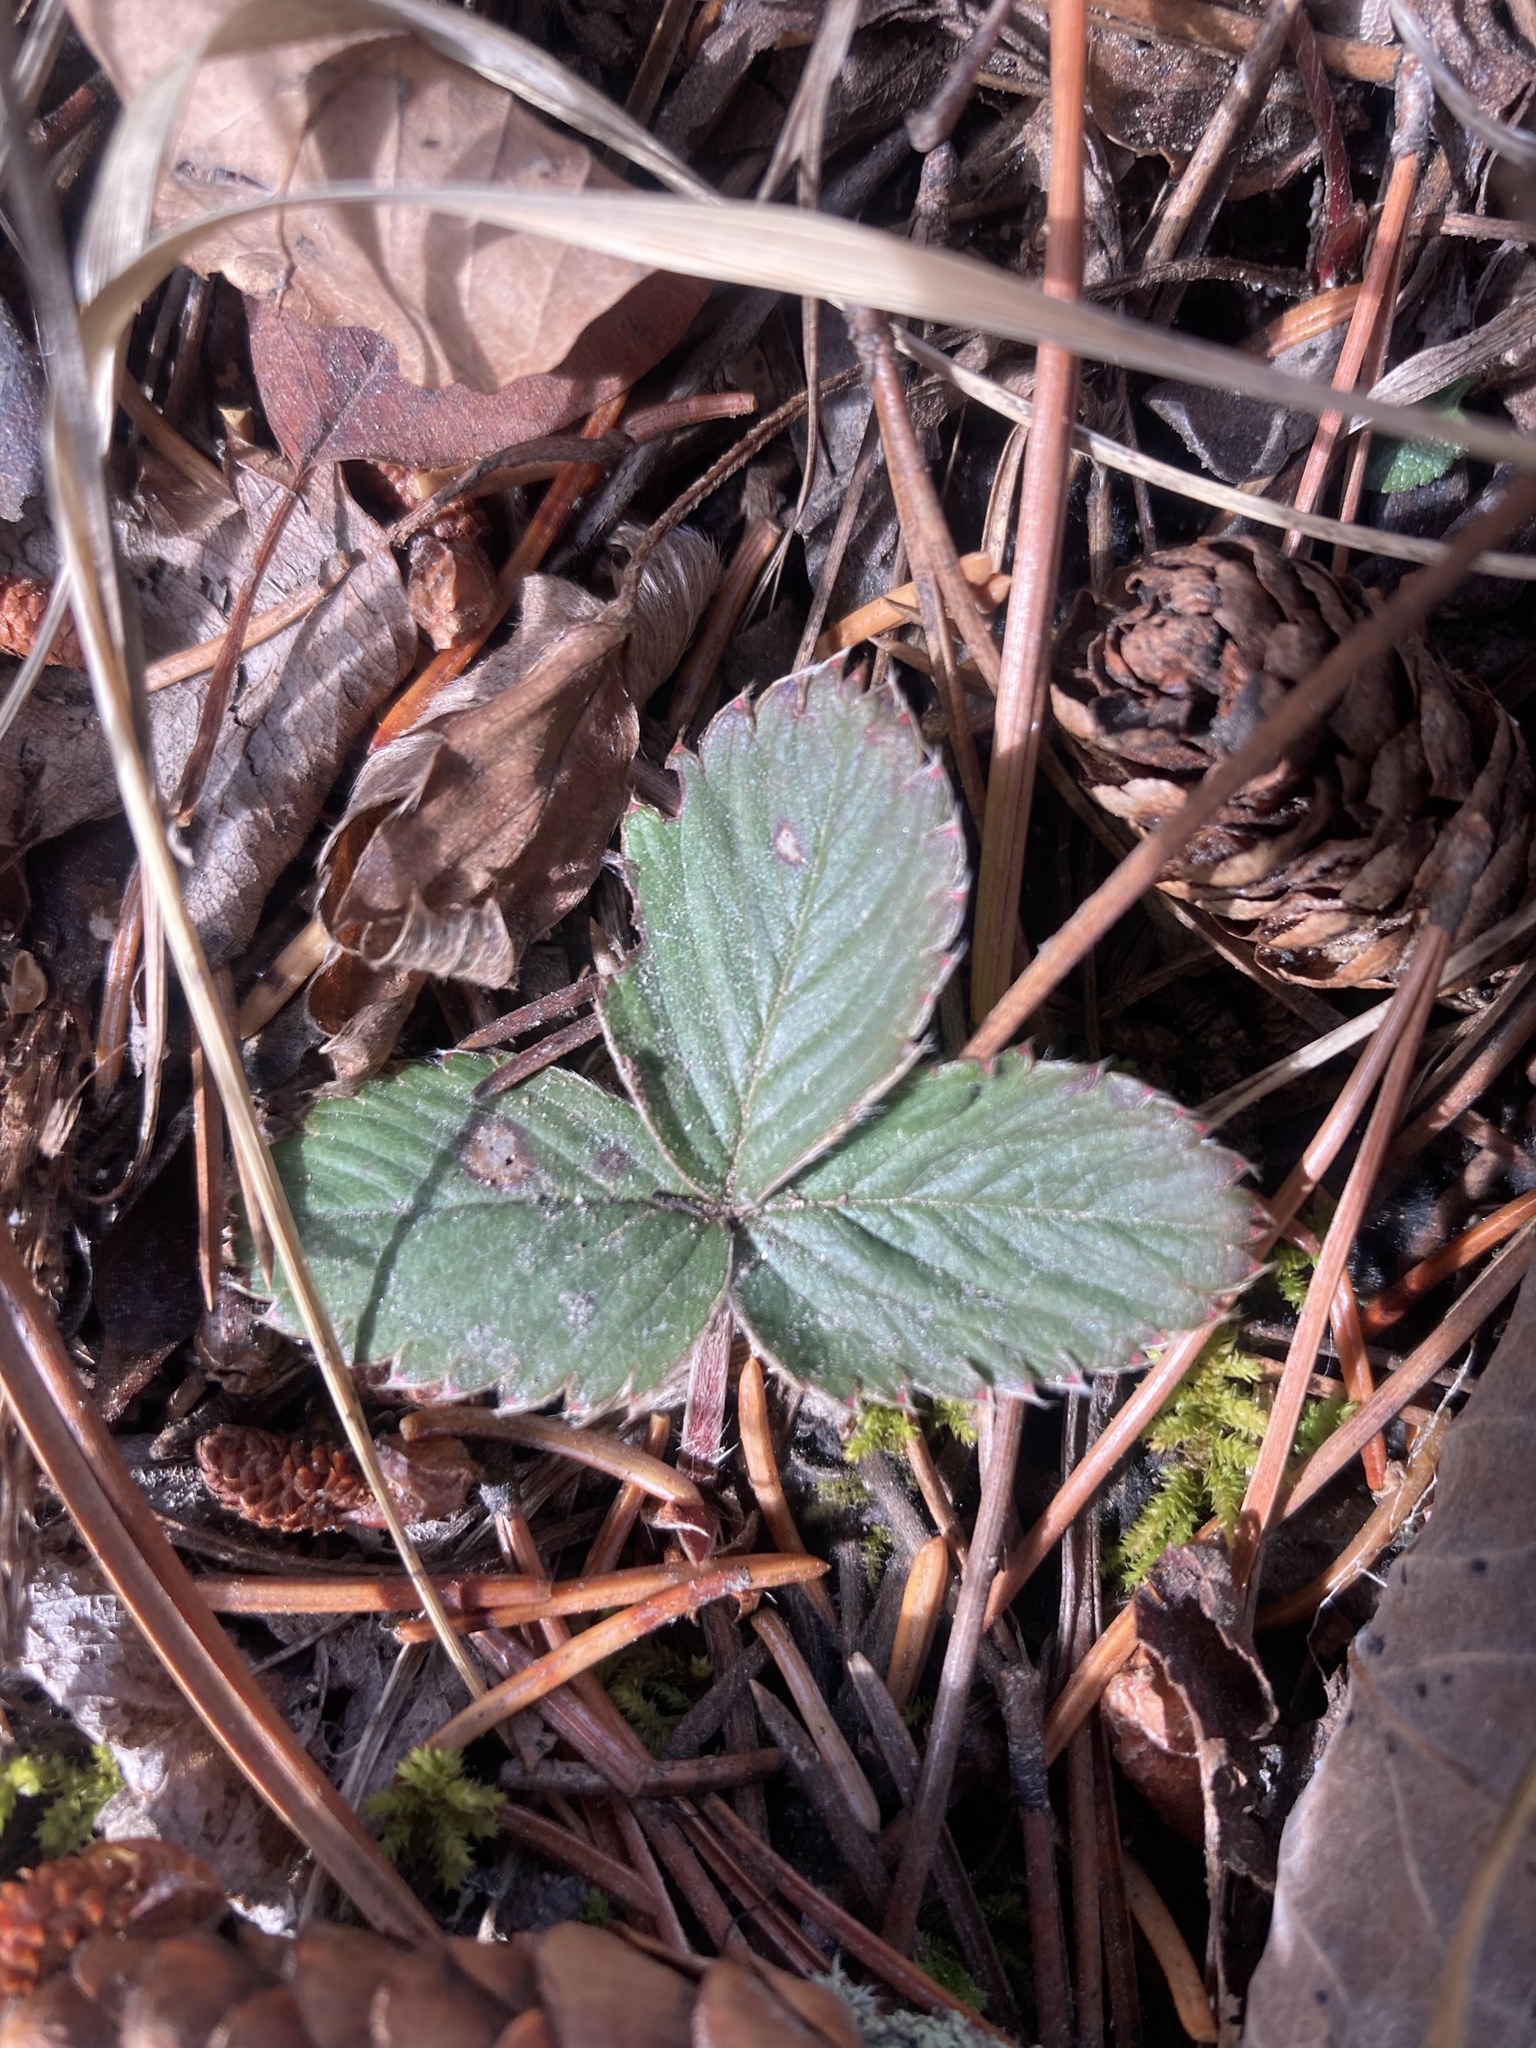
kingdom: Plantae
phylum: Tracheophyta
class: Magnoliopsida
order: Rosales
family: Rosaceae
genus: Fragaria
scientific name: Fragaria virginiana
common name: Thickleaved wild strawberry
